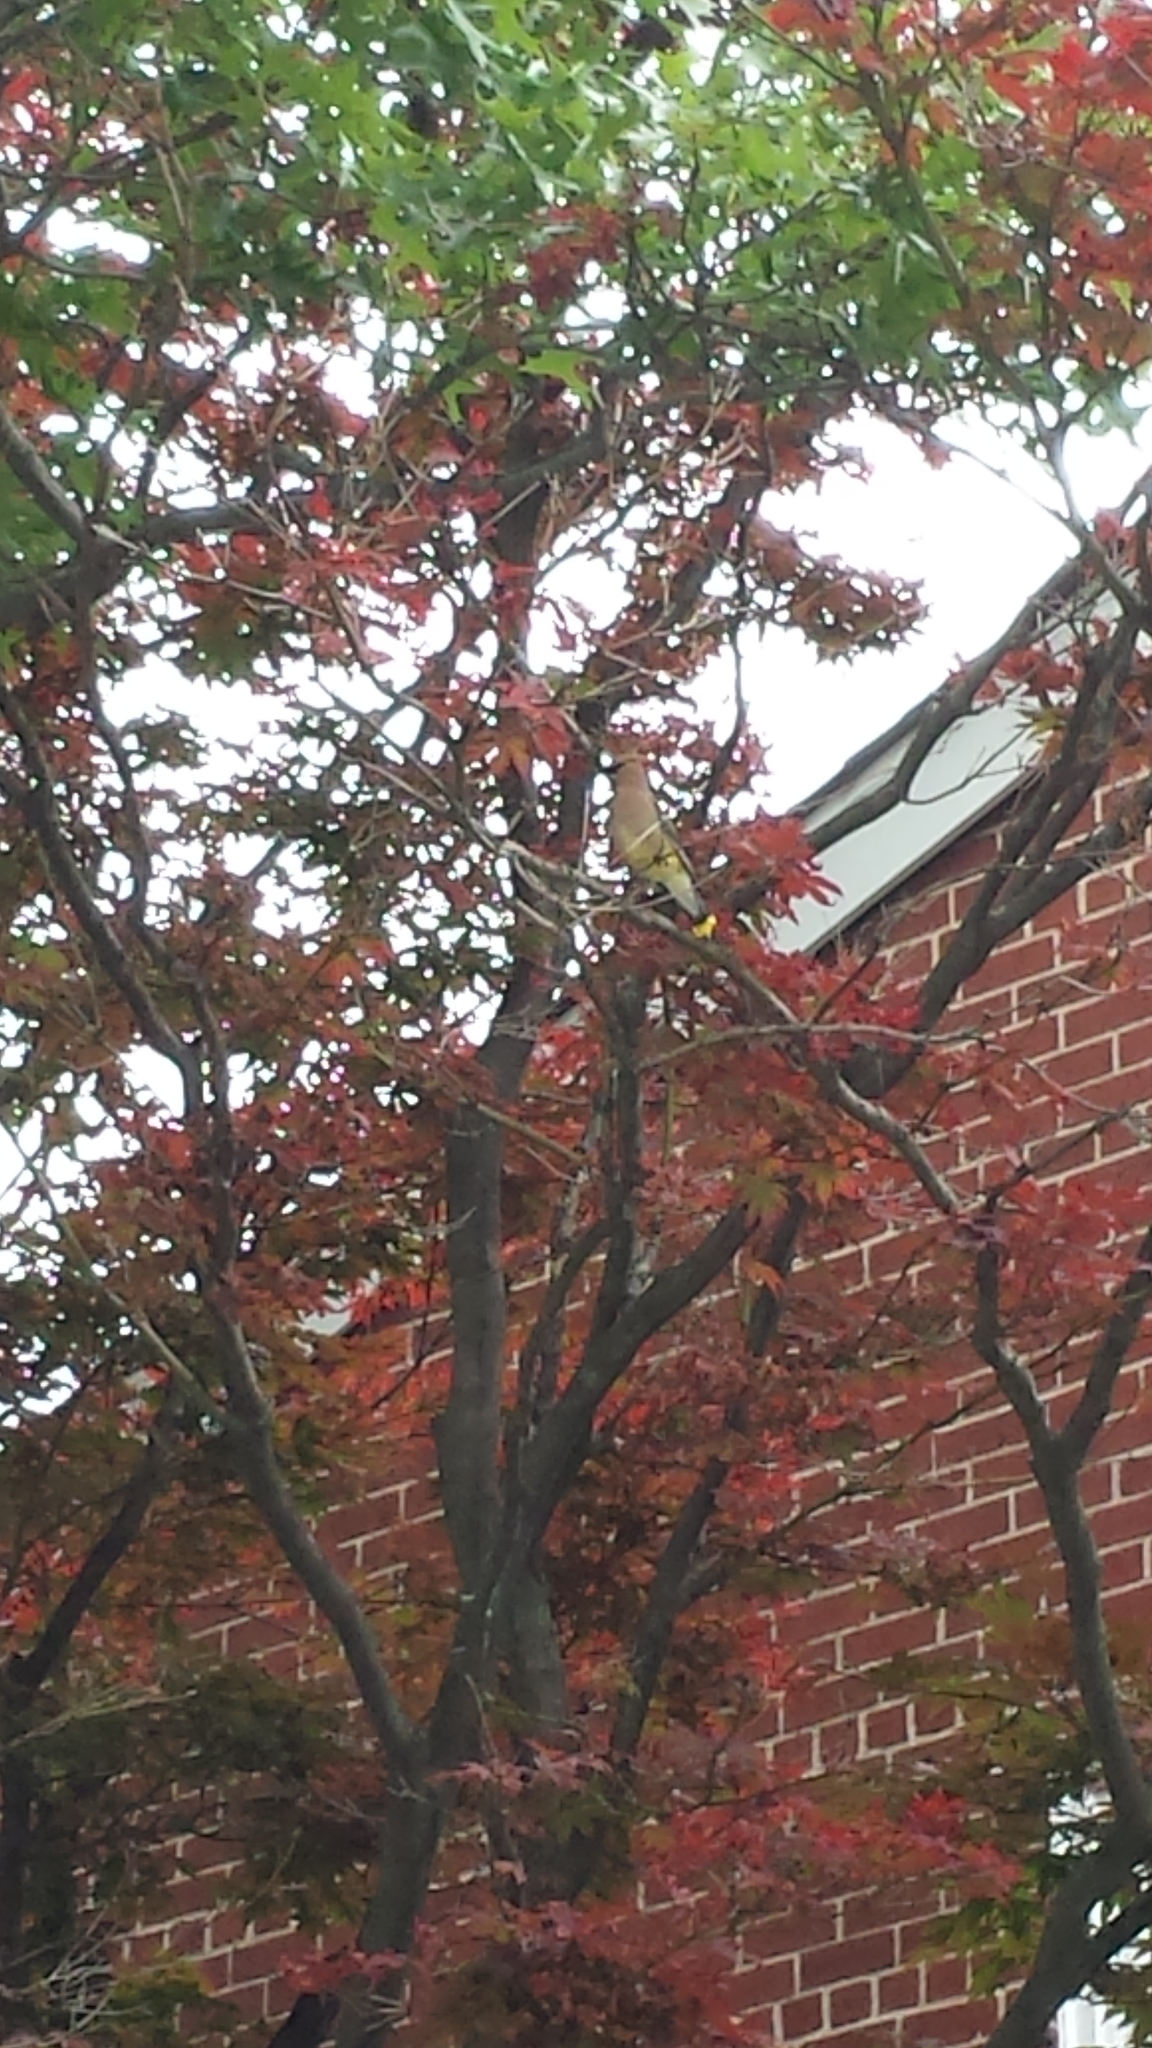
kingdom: Animalia
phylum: Chordata
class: Aves
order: Passeriformes
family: Bombycillidae
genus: Bombycilla
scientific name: Bombycilla cedrorum
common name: Cedar waxwing
